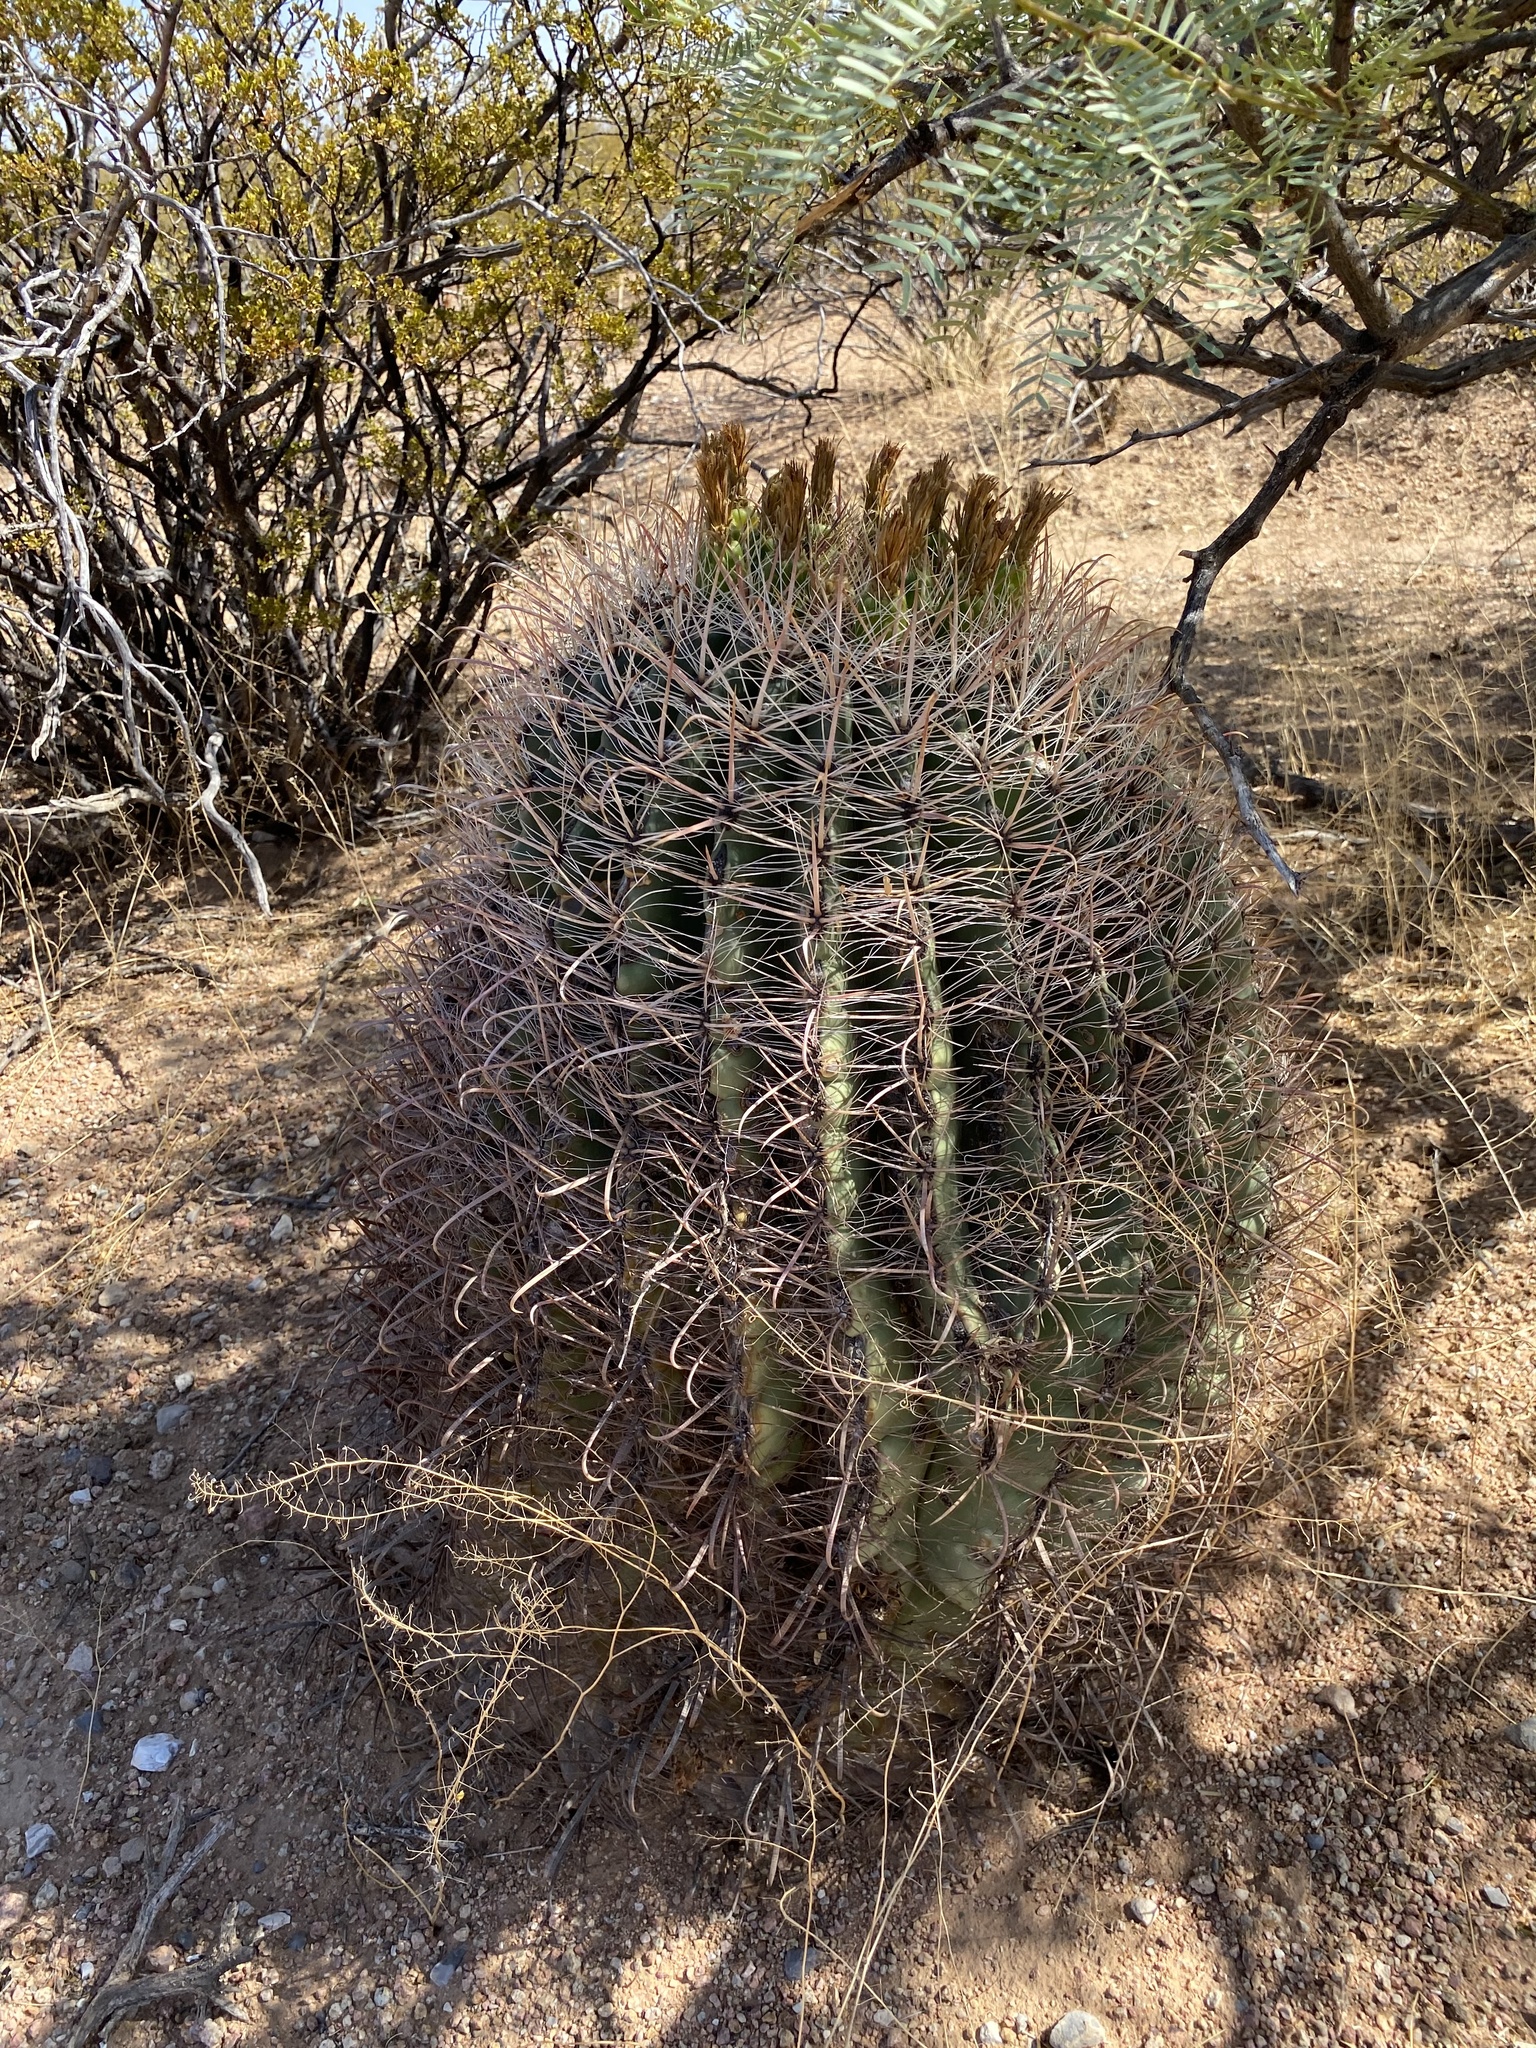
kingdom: Plantae
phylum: Tracheophyta
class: Magnoliopsida
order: Caryophyllales
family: Cactaceae
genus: Ferocactus
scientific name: Ferocactus wislizeni
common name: Candy barrel cactus
